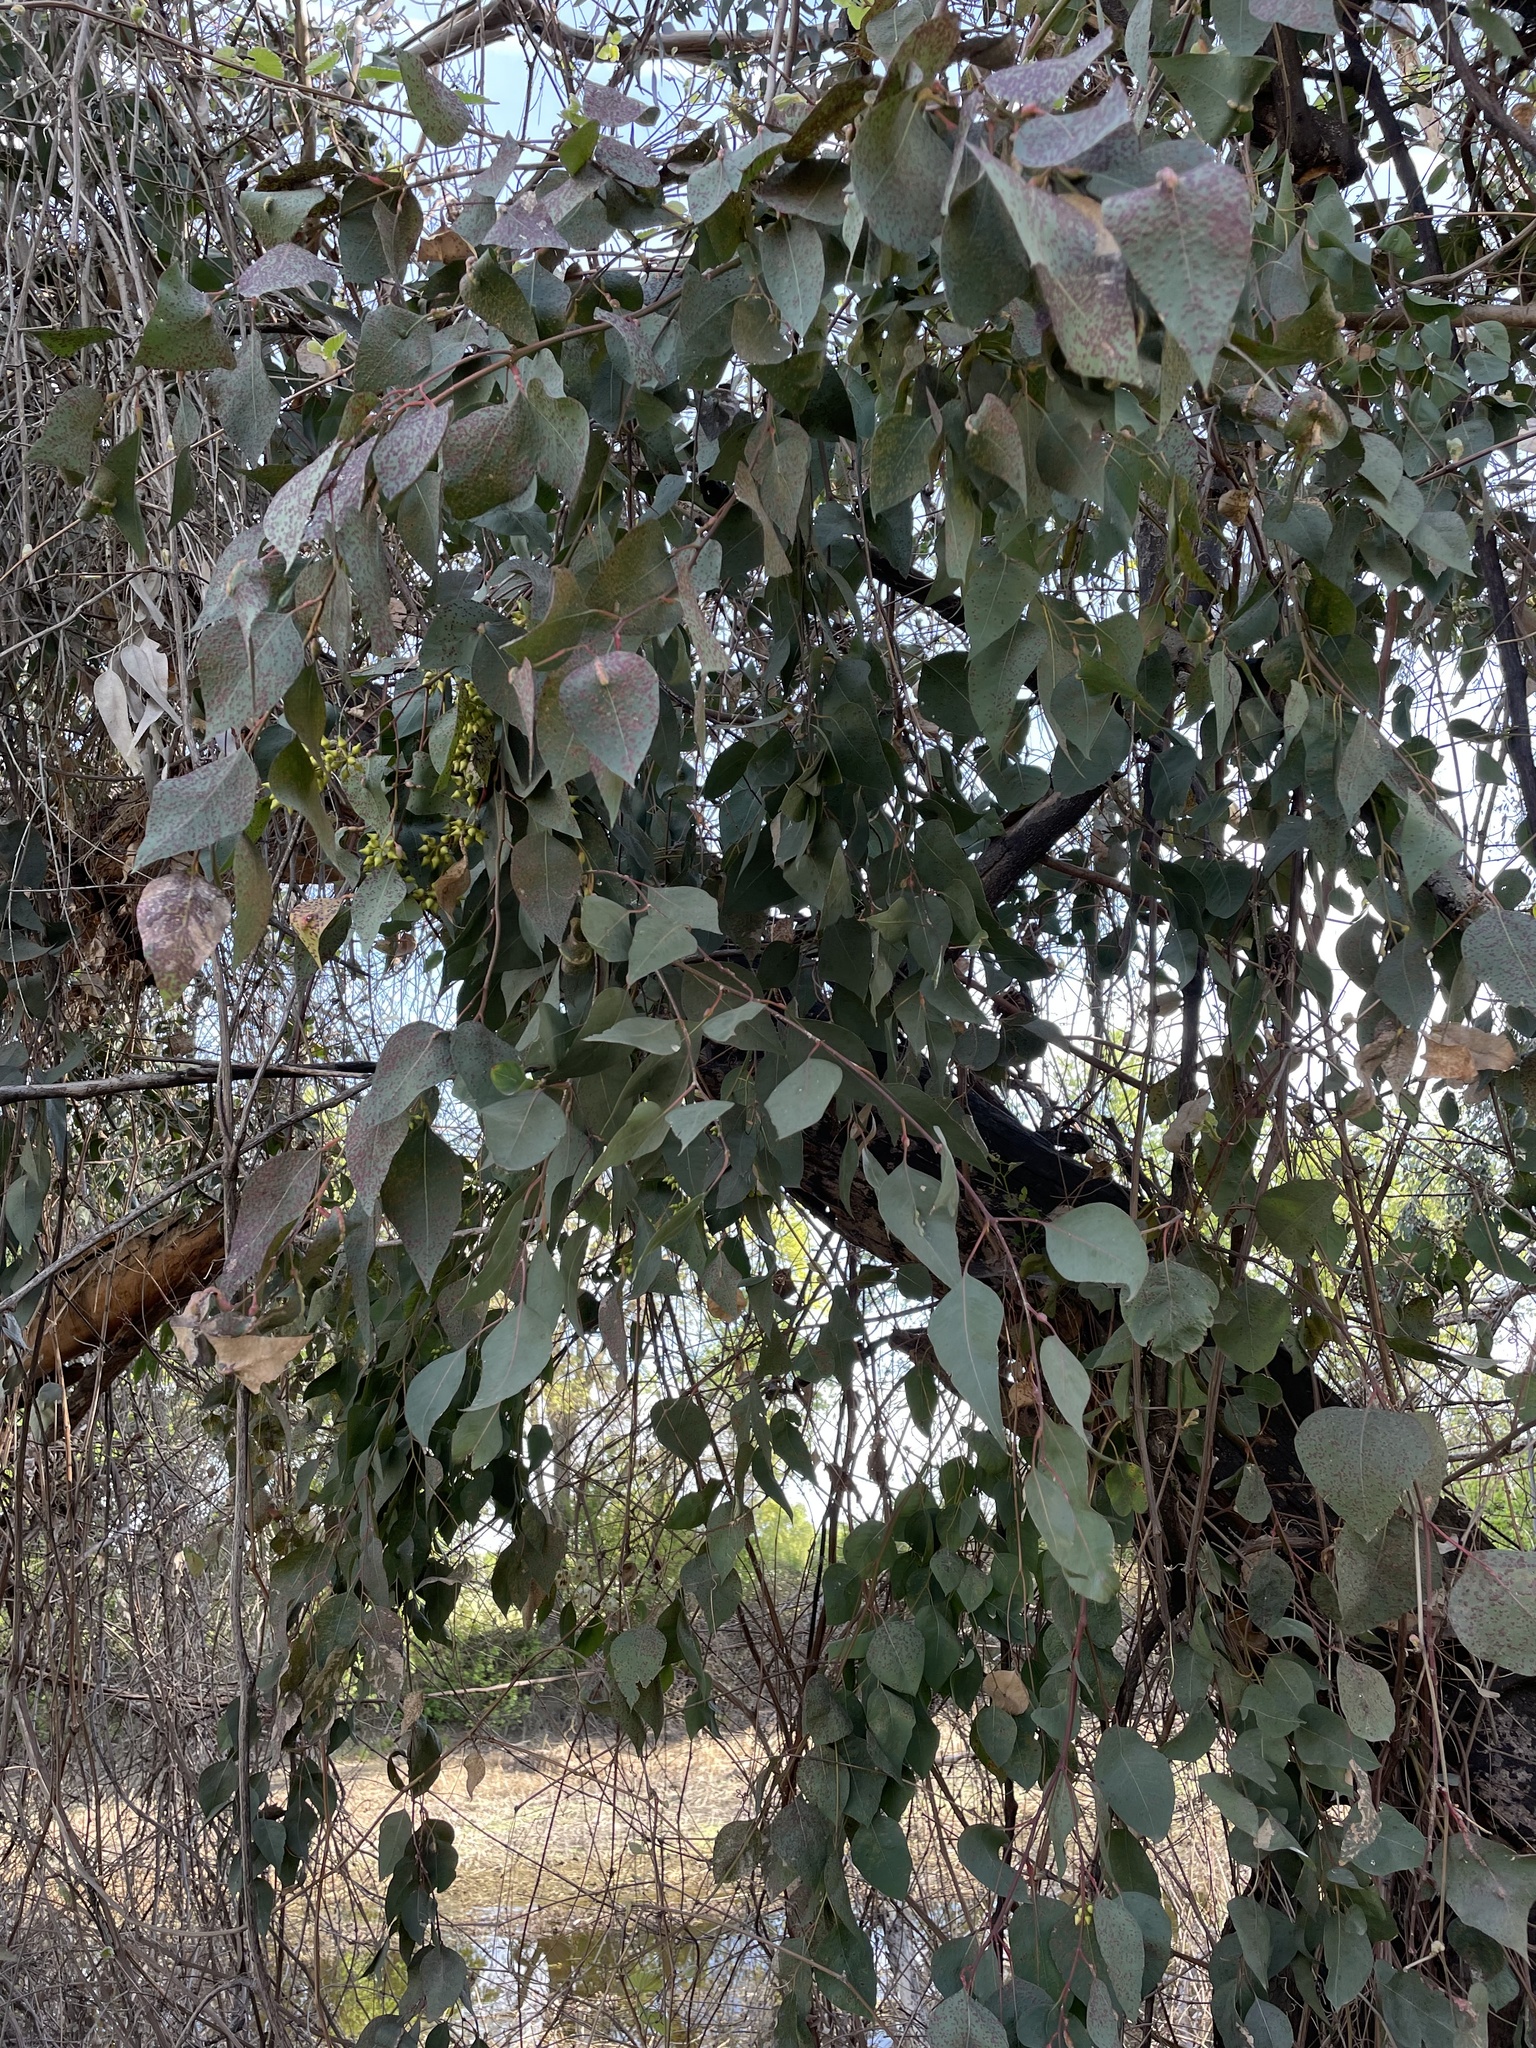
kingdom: Plantae
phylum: Tracheophyta
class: Magnoliopsida
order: Myrtales
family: Myrtaceae
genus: Eucalyptus
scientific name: Eucalyptus camaldulensis
